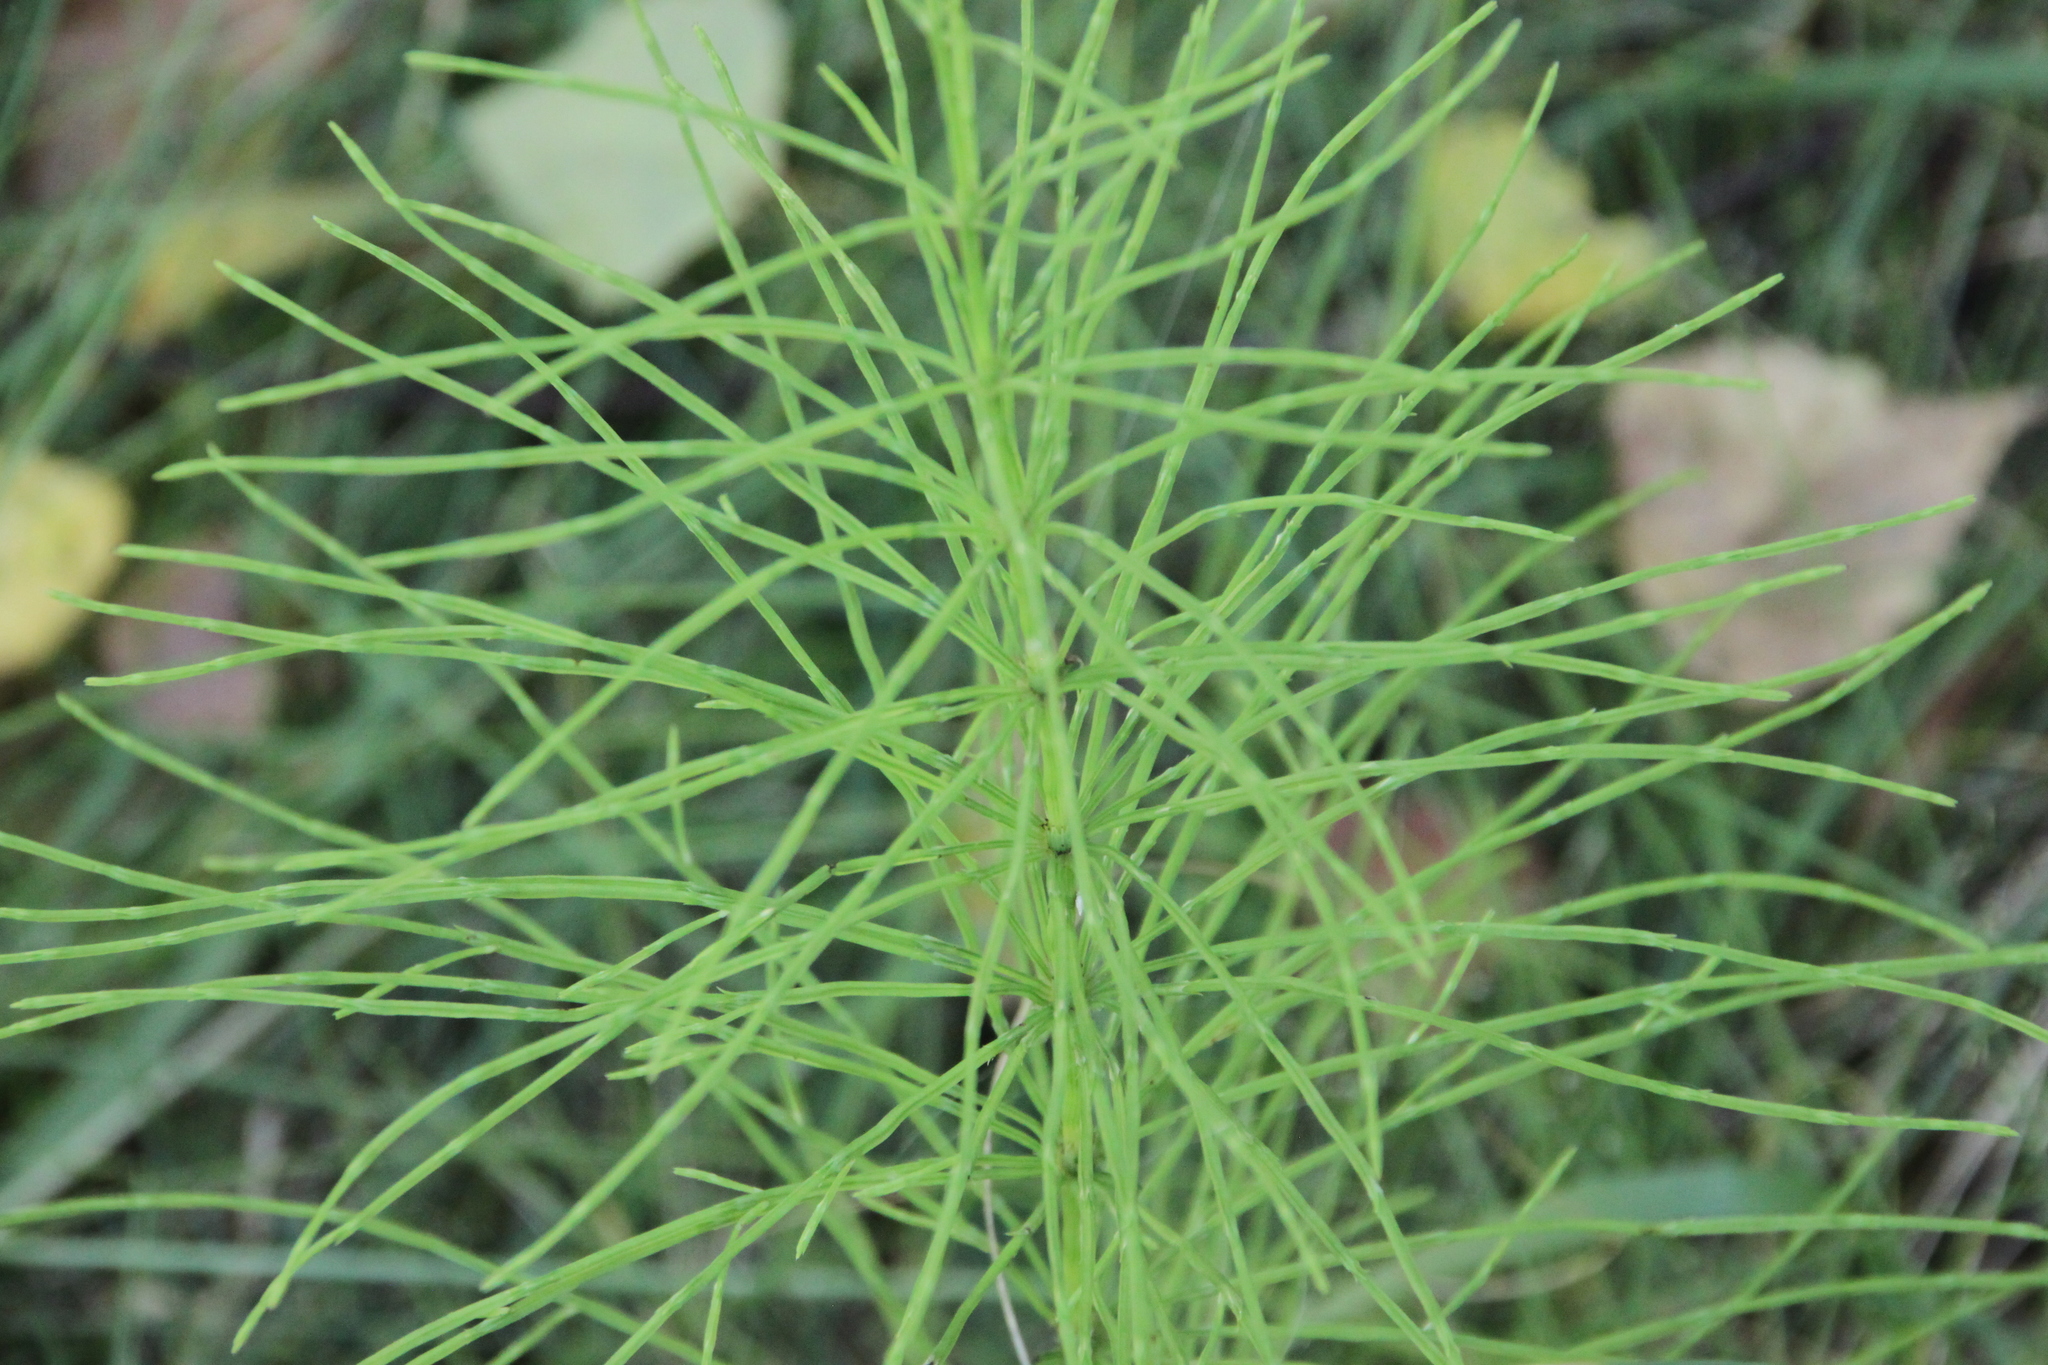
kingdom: Plantae
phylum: Tracheophyta
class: Polypodiopsida
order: Equisetales
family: Equisetaceae
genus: Equisetum
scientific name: Equisetum arvense
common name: Field horsetail
